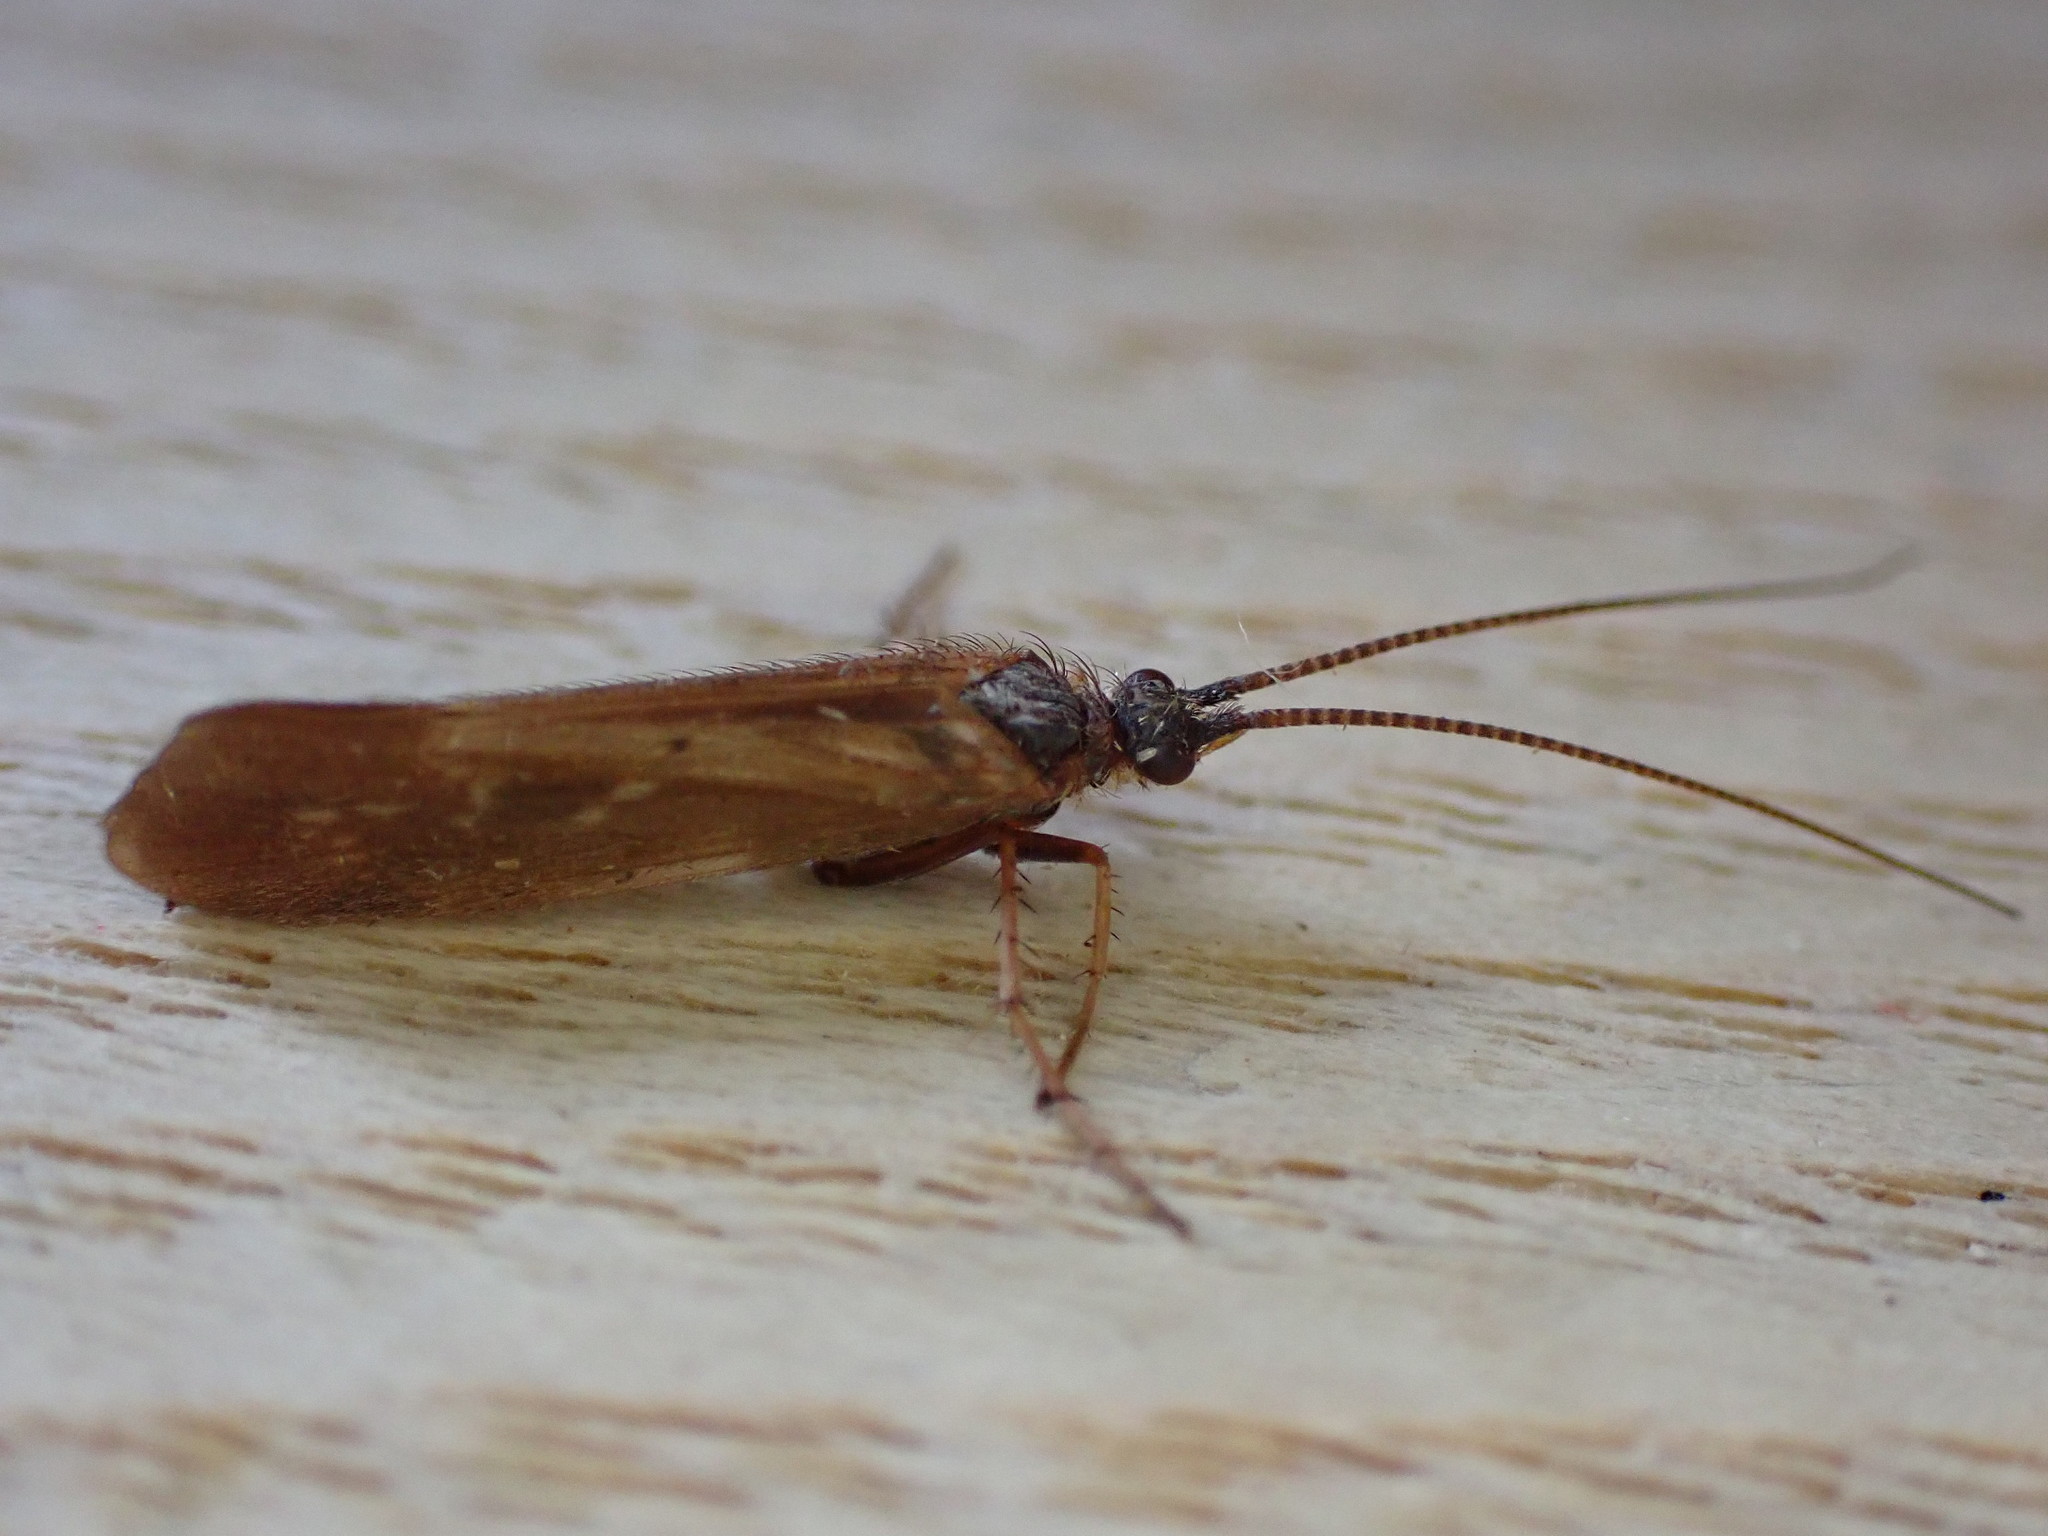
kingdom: Animalia
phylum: Arthropoda
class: Insecta
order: Trichoptera
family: Limnephilidae
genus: Limnephilus
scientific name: Limnephilus auricula
